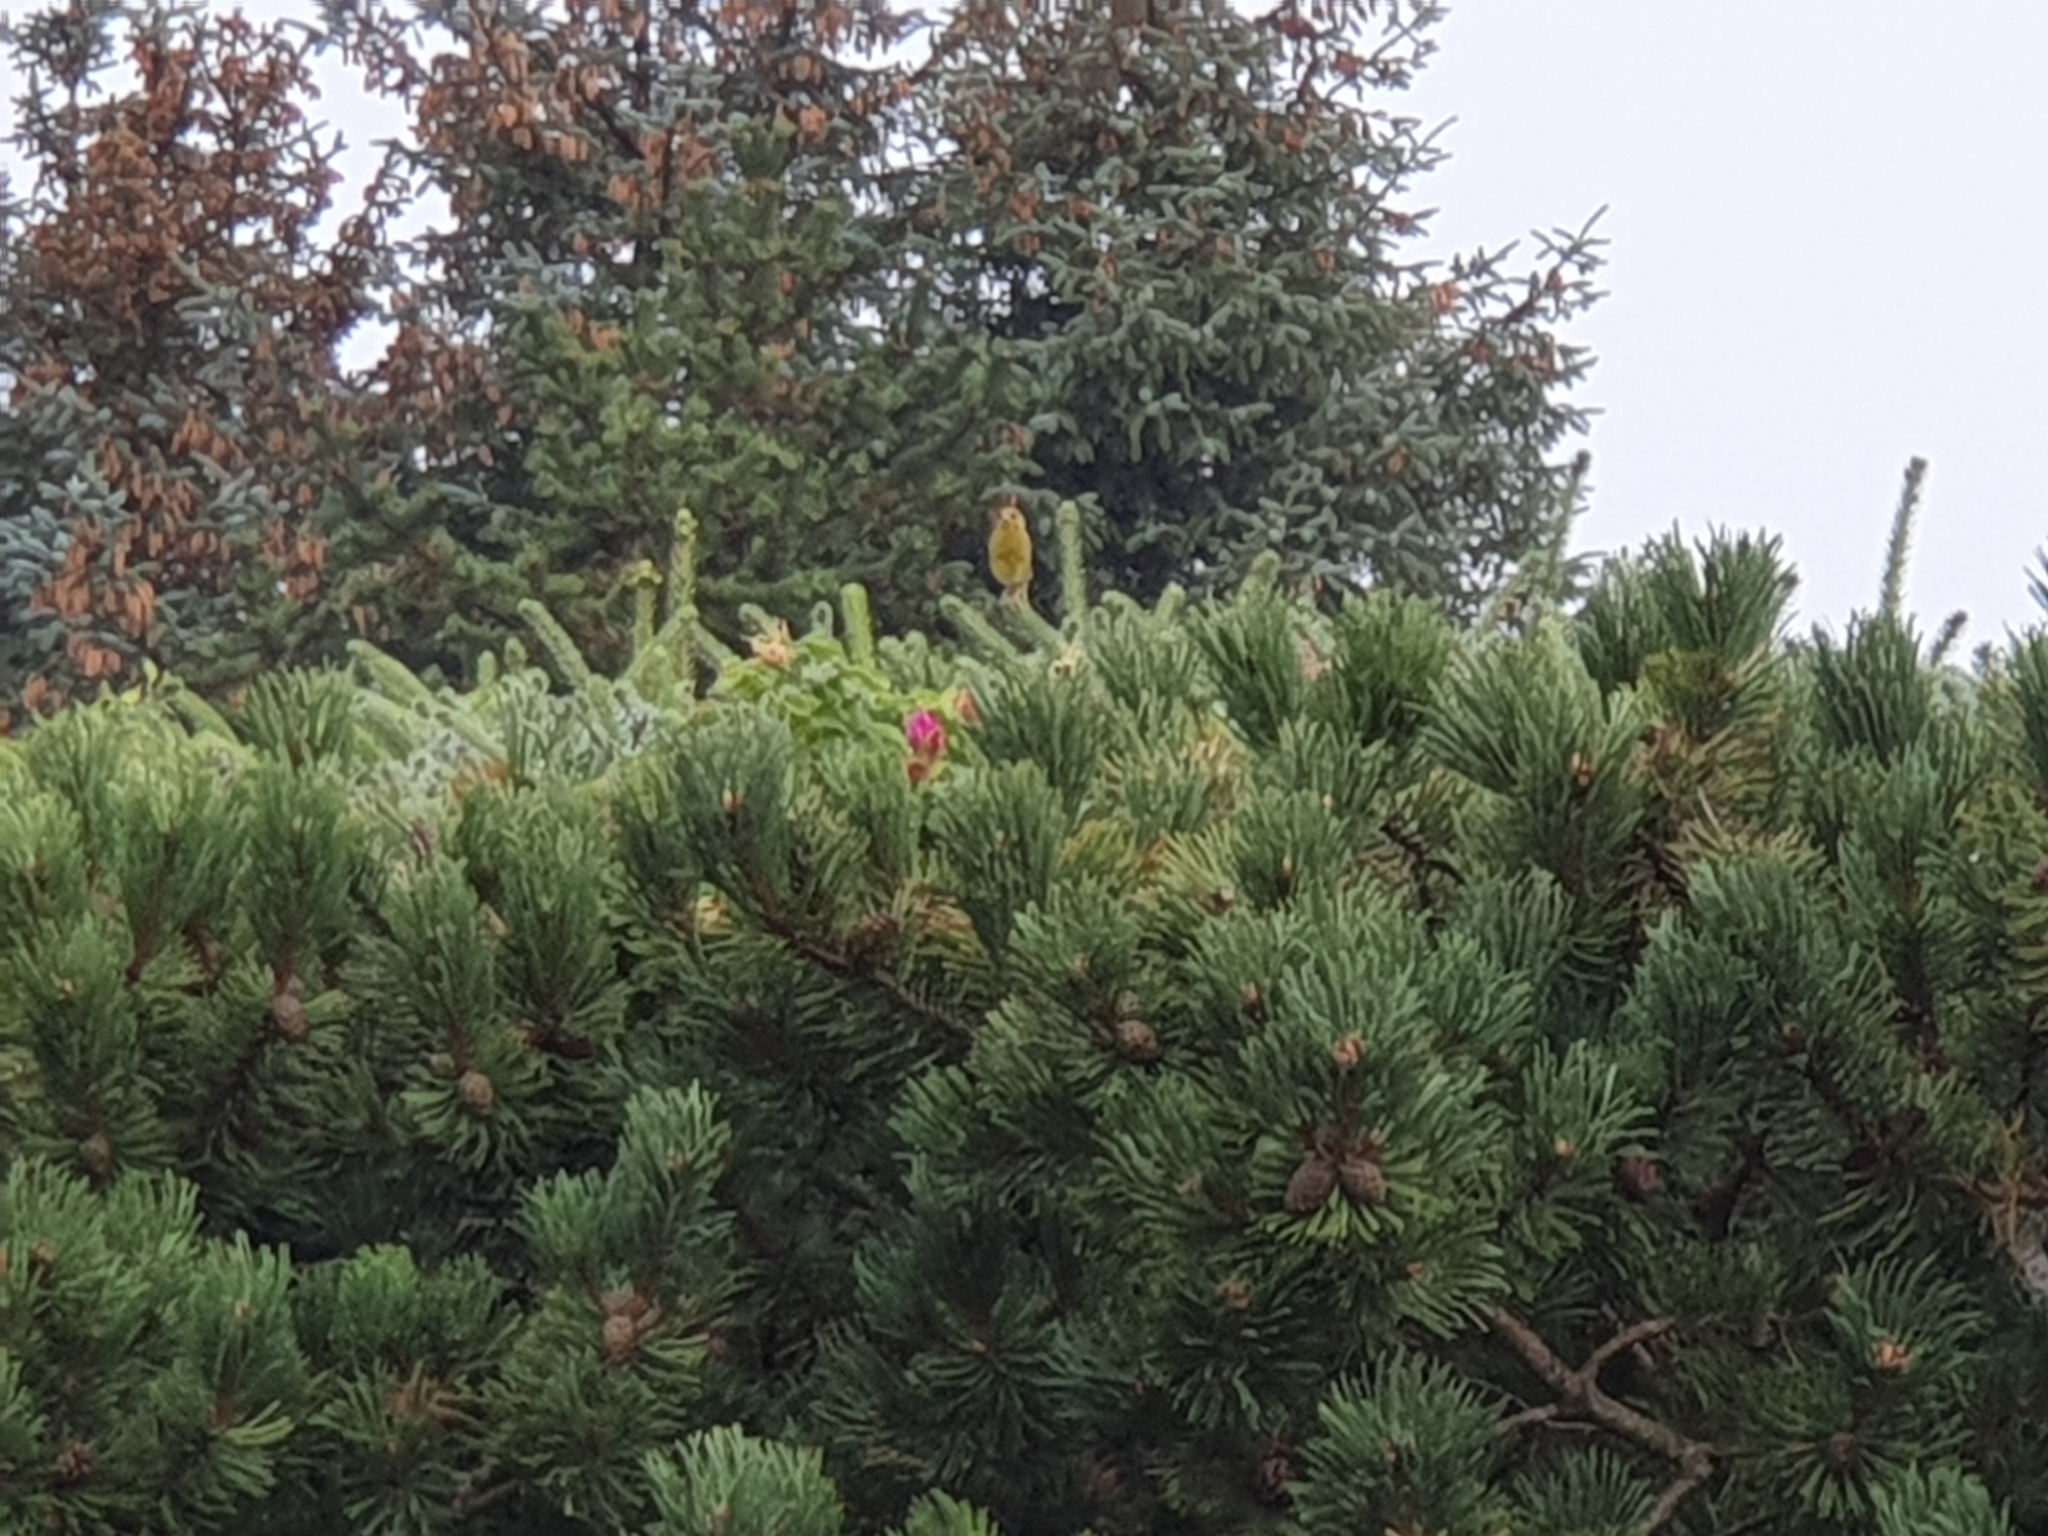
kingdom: Plantae
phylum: Tracheophyta
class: Liliopsida
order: Poales
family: Poaceae
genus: Chloris
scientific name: Chloris chloris
